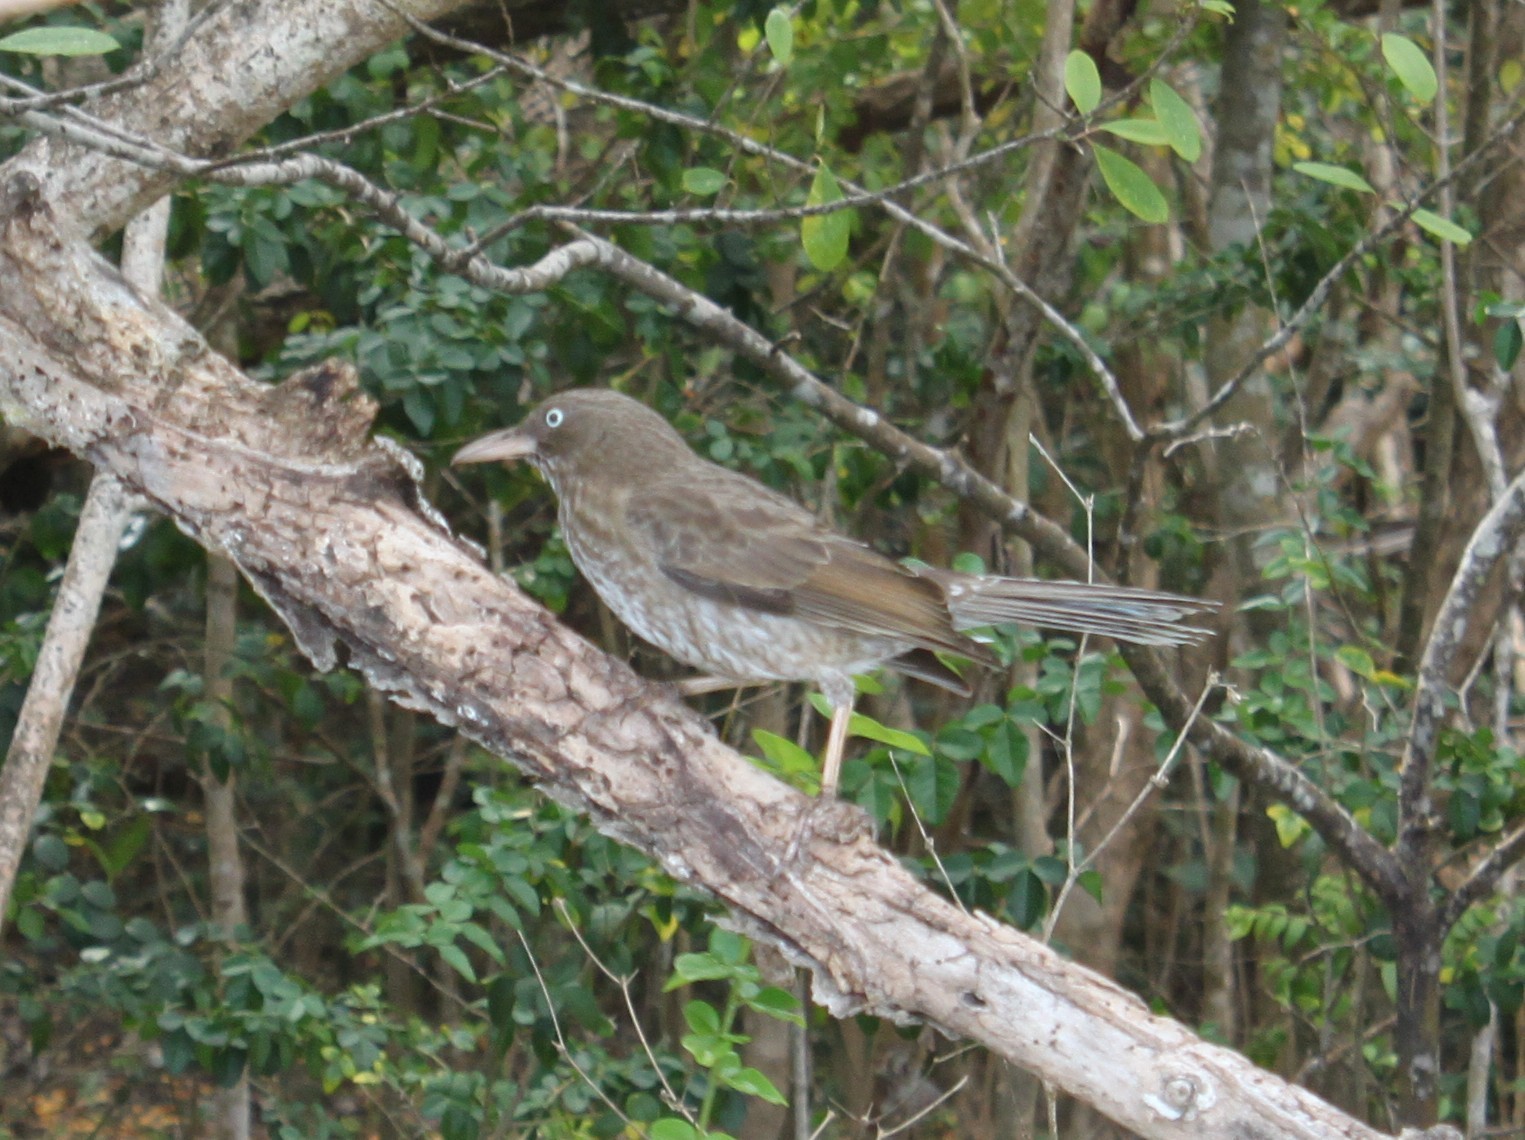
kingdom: Animalia
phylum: Chordata
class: Aves
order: Passeriformes
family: Mimidae
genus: Margarops
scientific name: Margarops fuscatus
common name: Pearly-eyed thrasher
